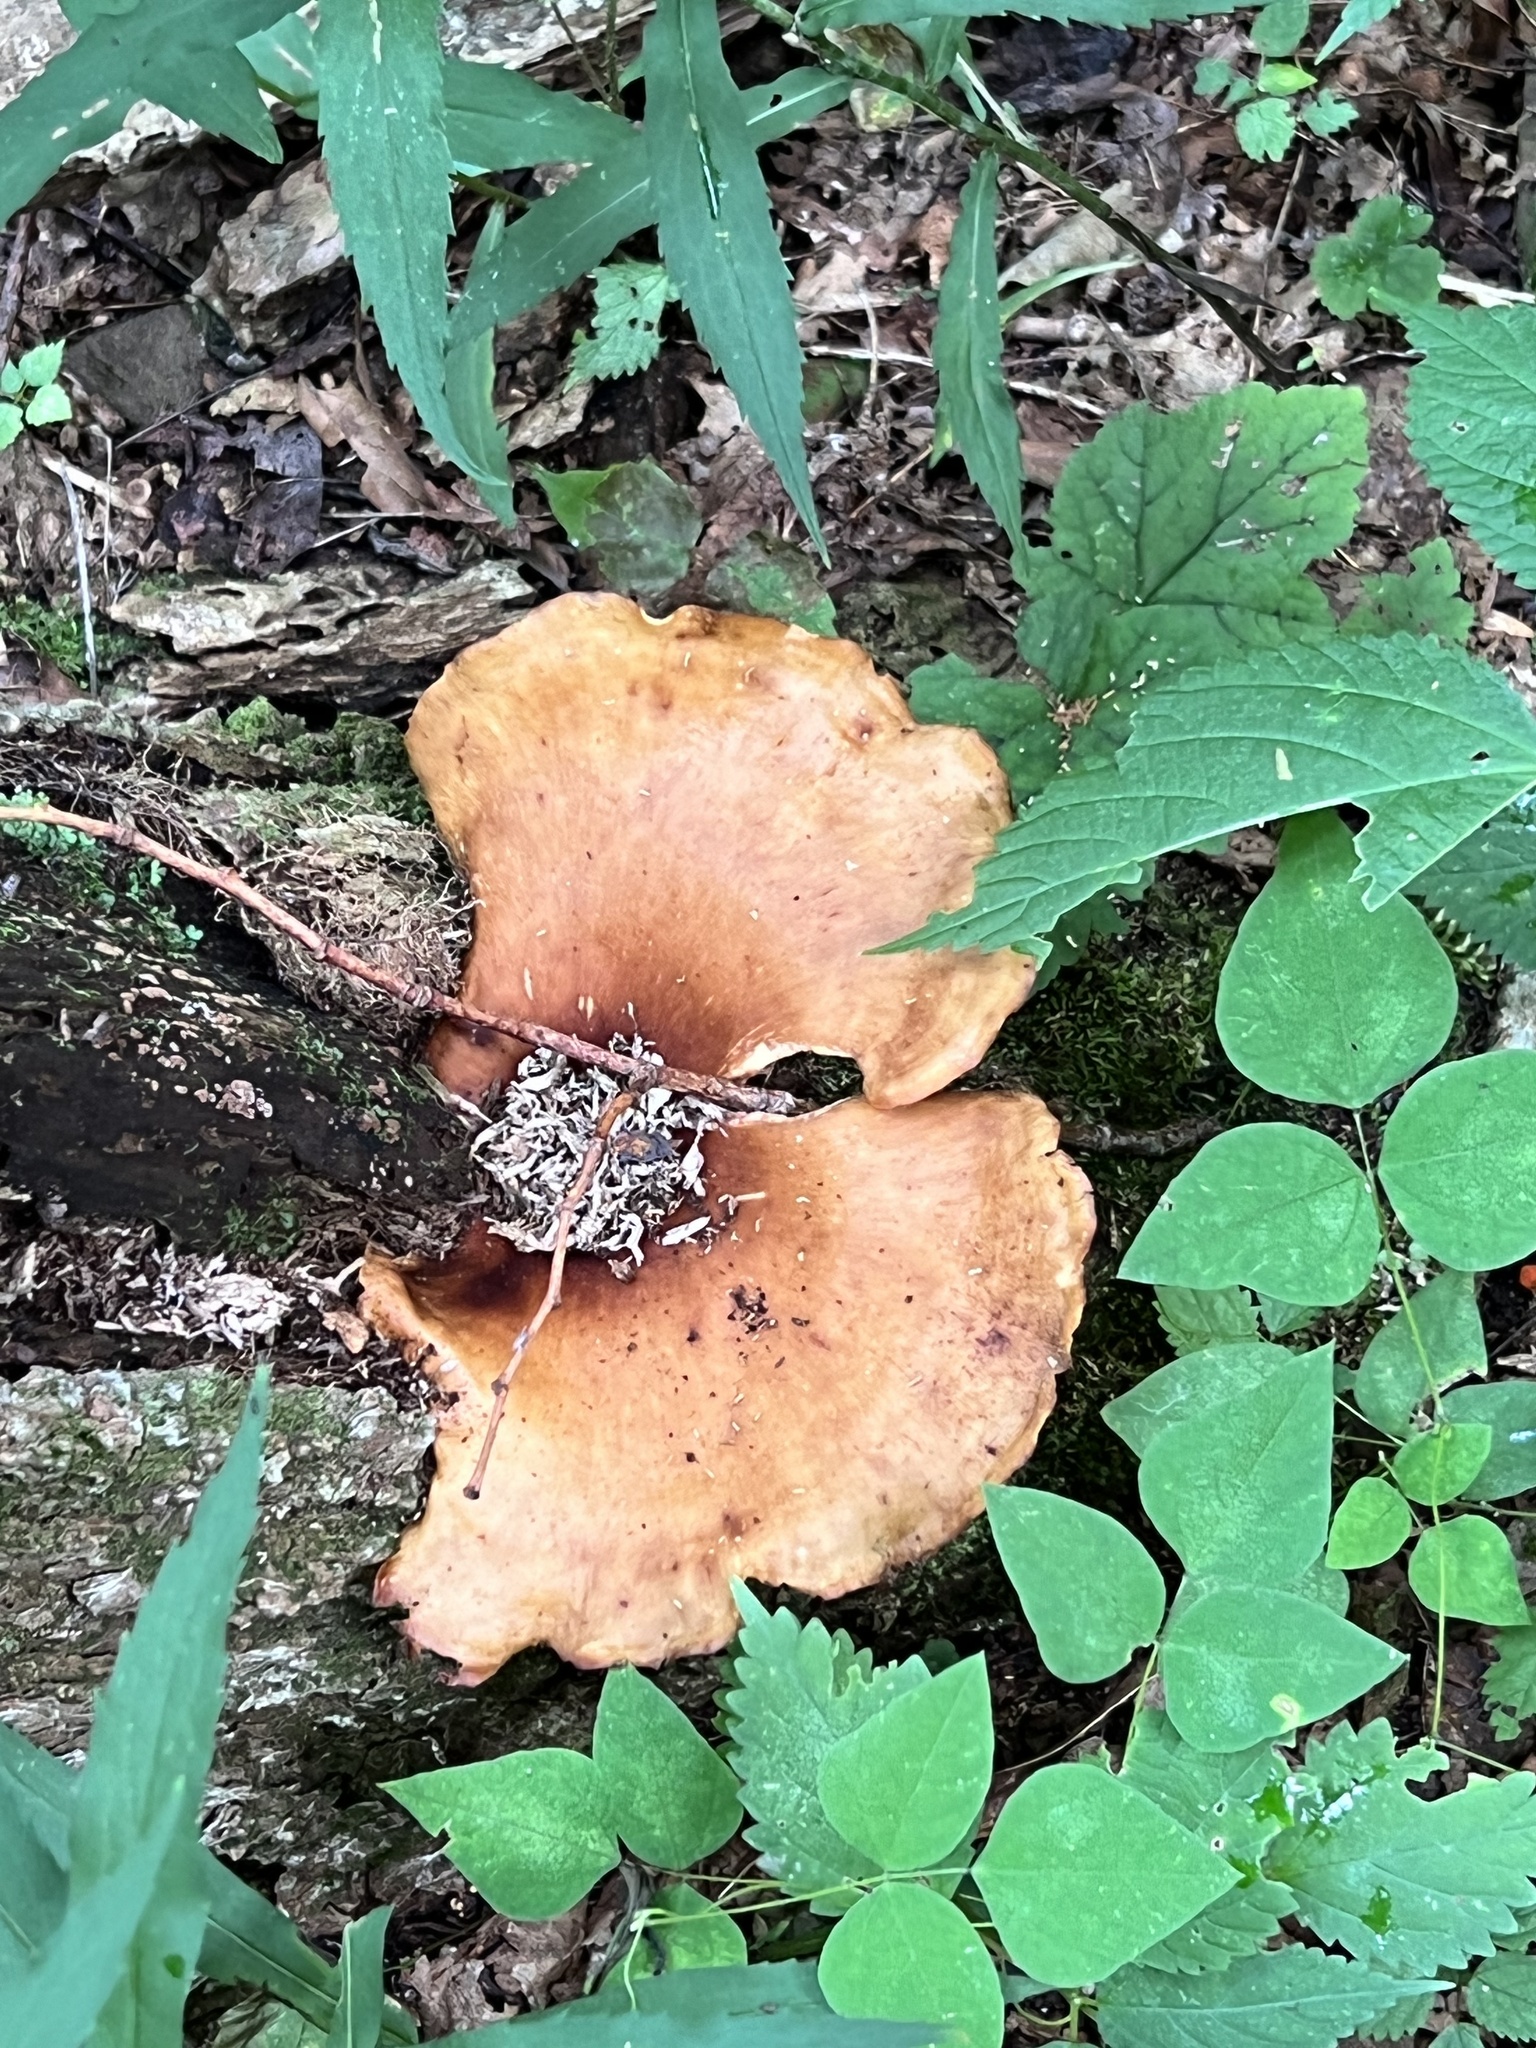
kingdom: Fungi
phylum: Basidiomycota
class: Agaricomycetes
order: Polyporales
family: Polyporaceae
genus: Picipes
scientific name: Picipes badius
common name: Bay polypore
